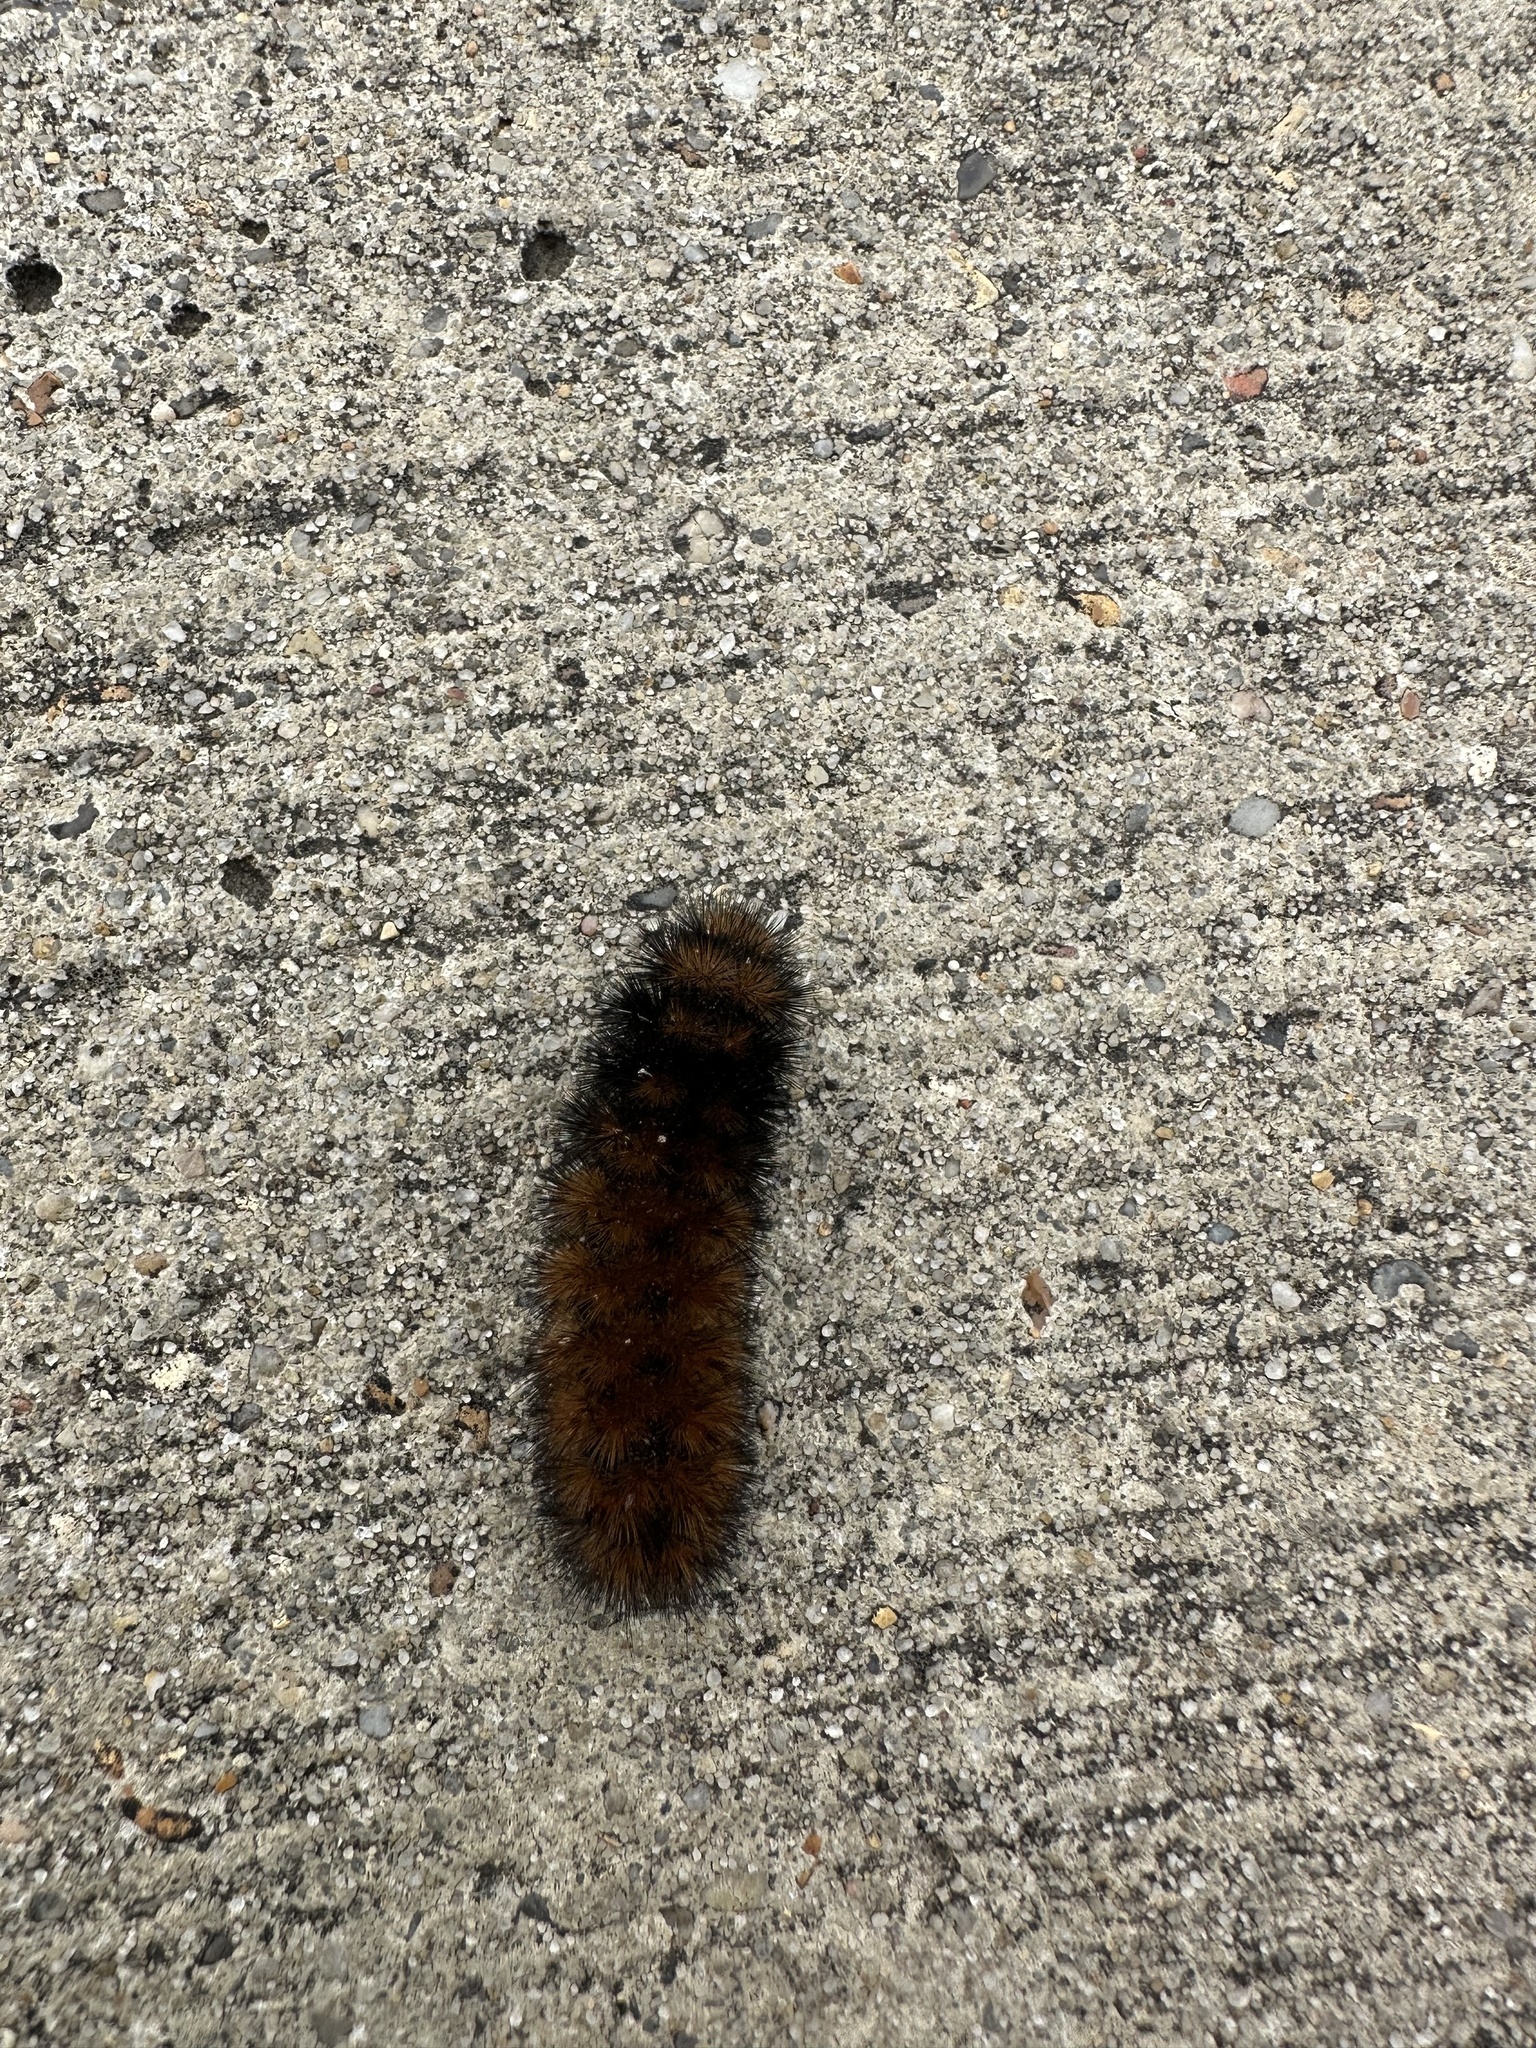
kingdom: Animalia
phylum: Arthropoda
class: Insecta
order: Lepidoptera
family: Erebidae
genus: Pyrrharctia
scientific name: Pyrrharctia isabella
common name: Isabella tiger moth
